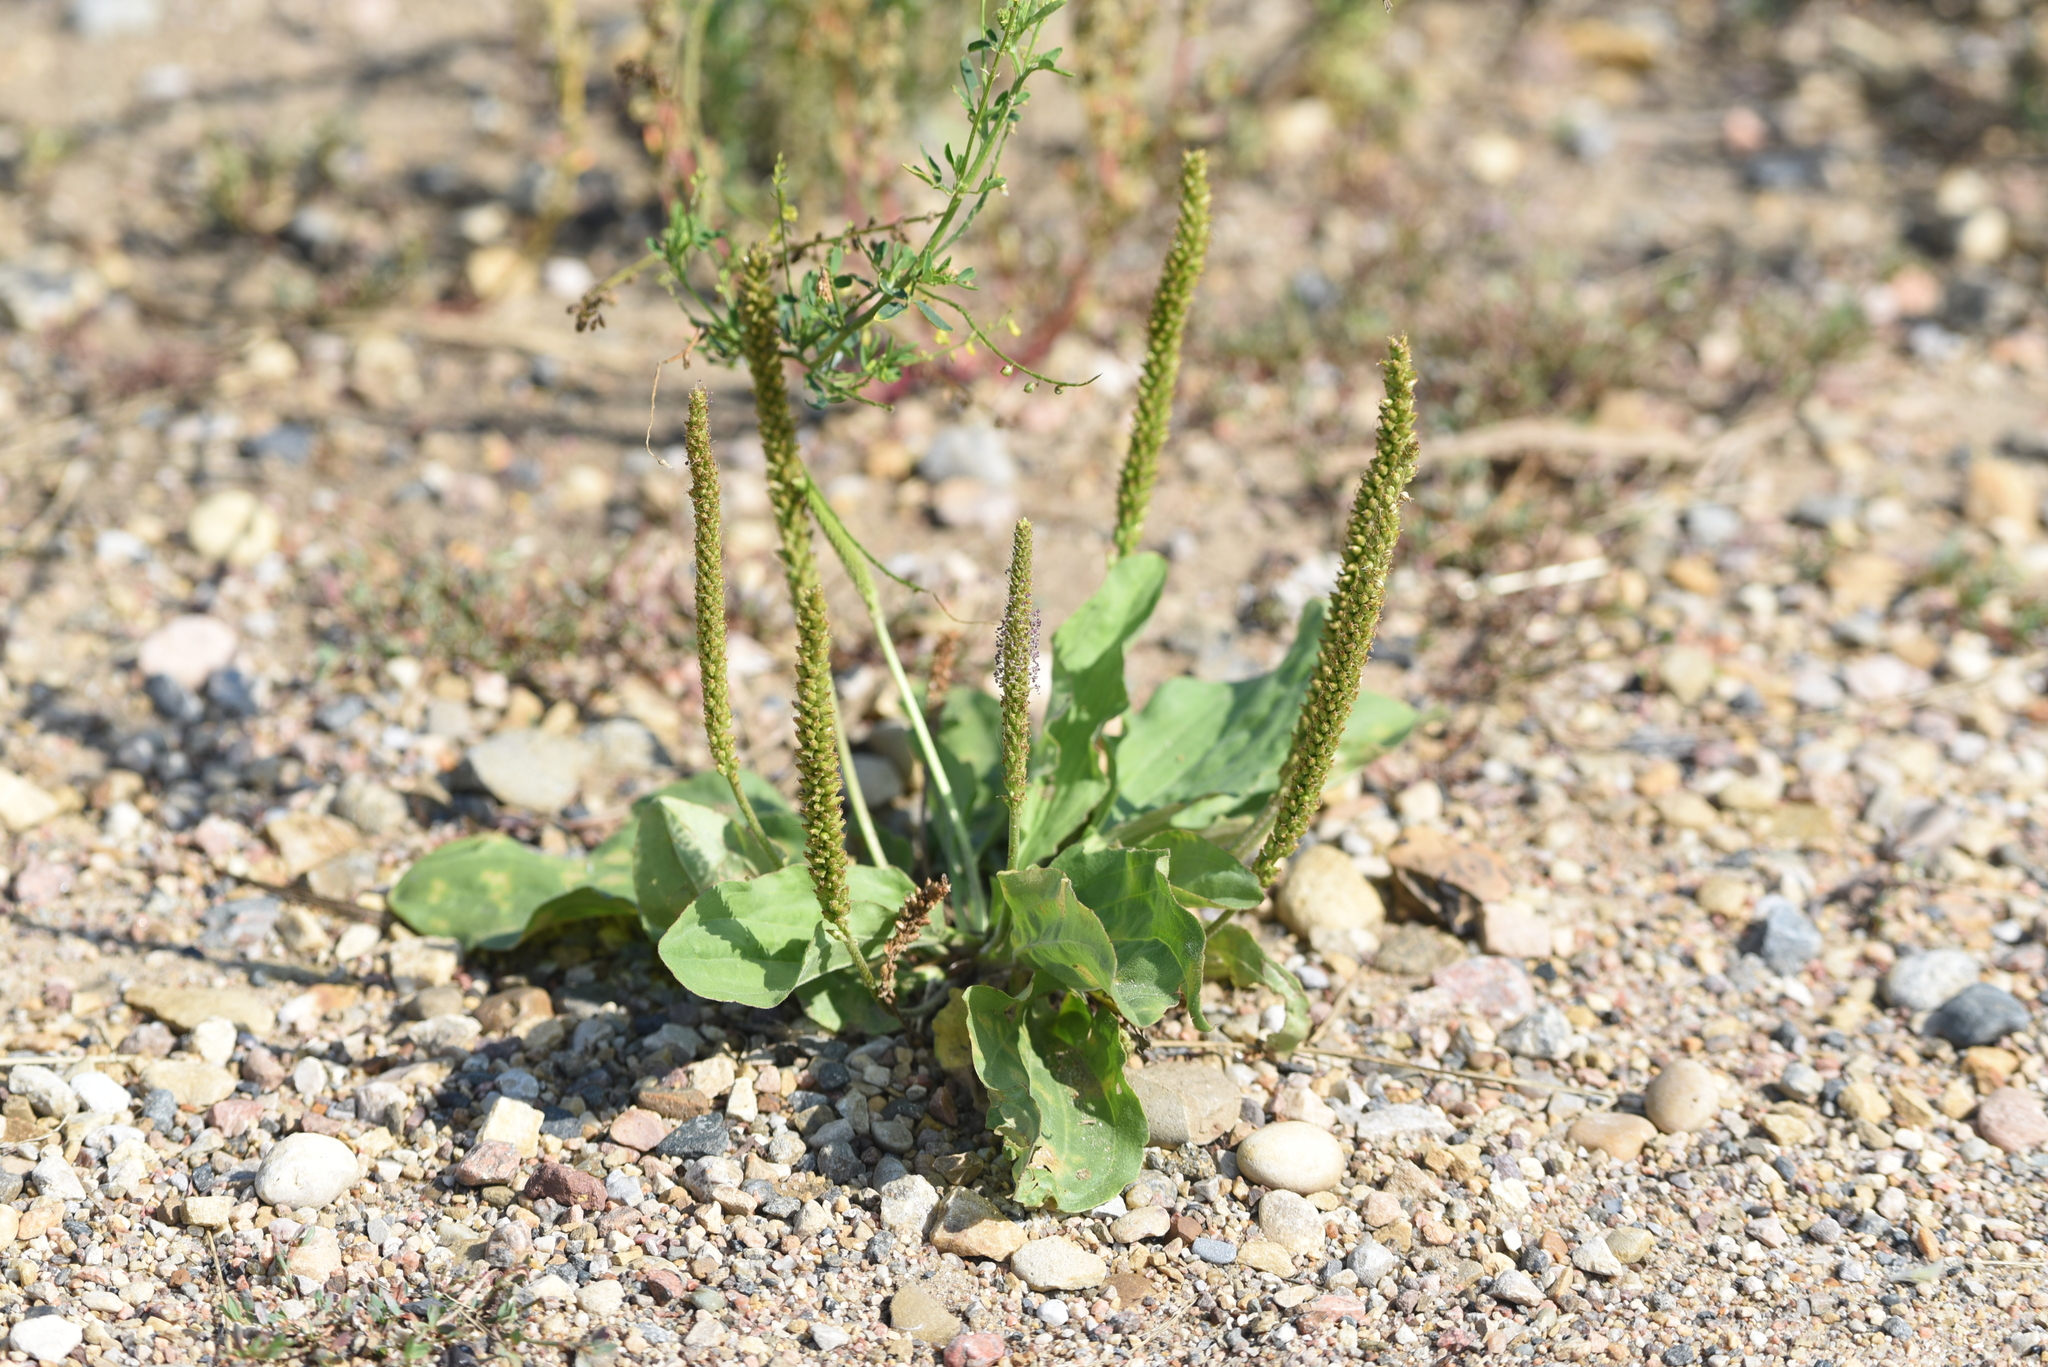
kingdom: Plantae
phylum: Tracheophyta
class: Magnoliopsida
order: Lamiales
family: Plantaginaceae
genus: Plantago
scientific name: Plantago major
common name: Common plantain
